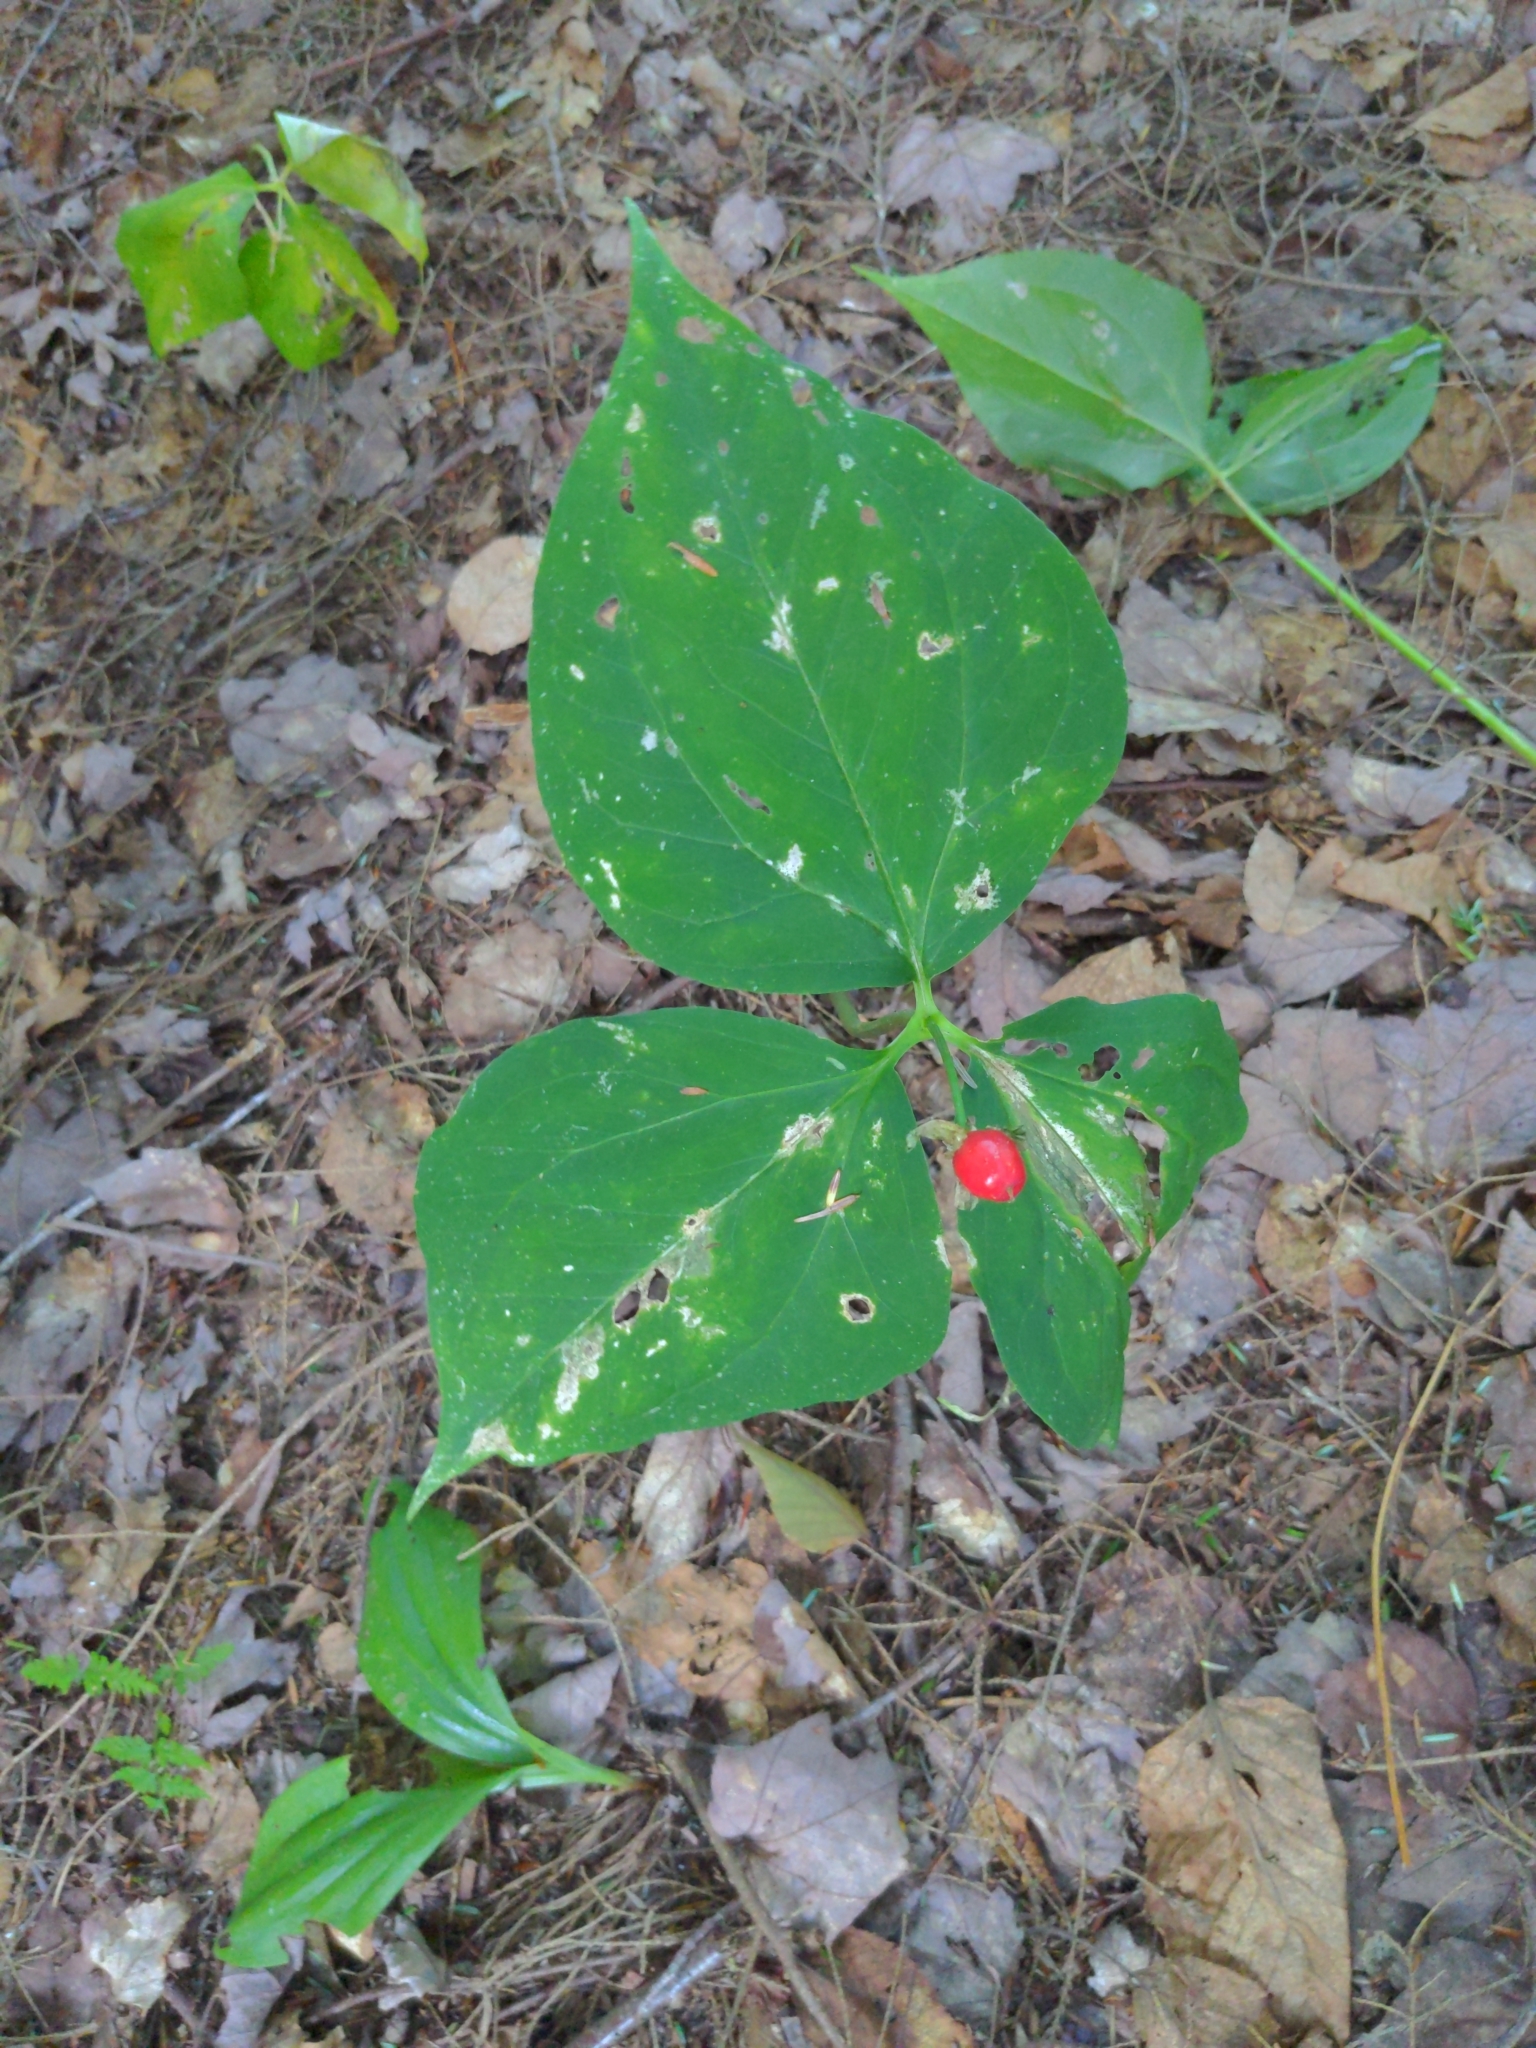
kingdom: Plantae
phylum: Tracheophyta
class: Liliopsida
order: Liliales
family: Melanthiaceae
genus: Trillium
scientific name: Trillium undulatum
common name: Paint trillium
